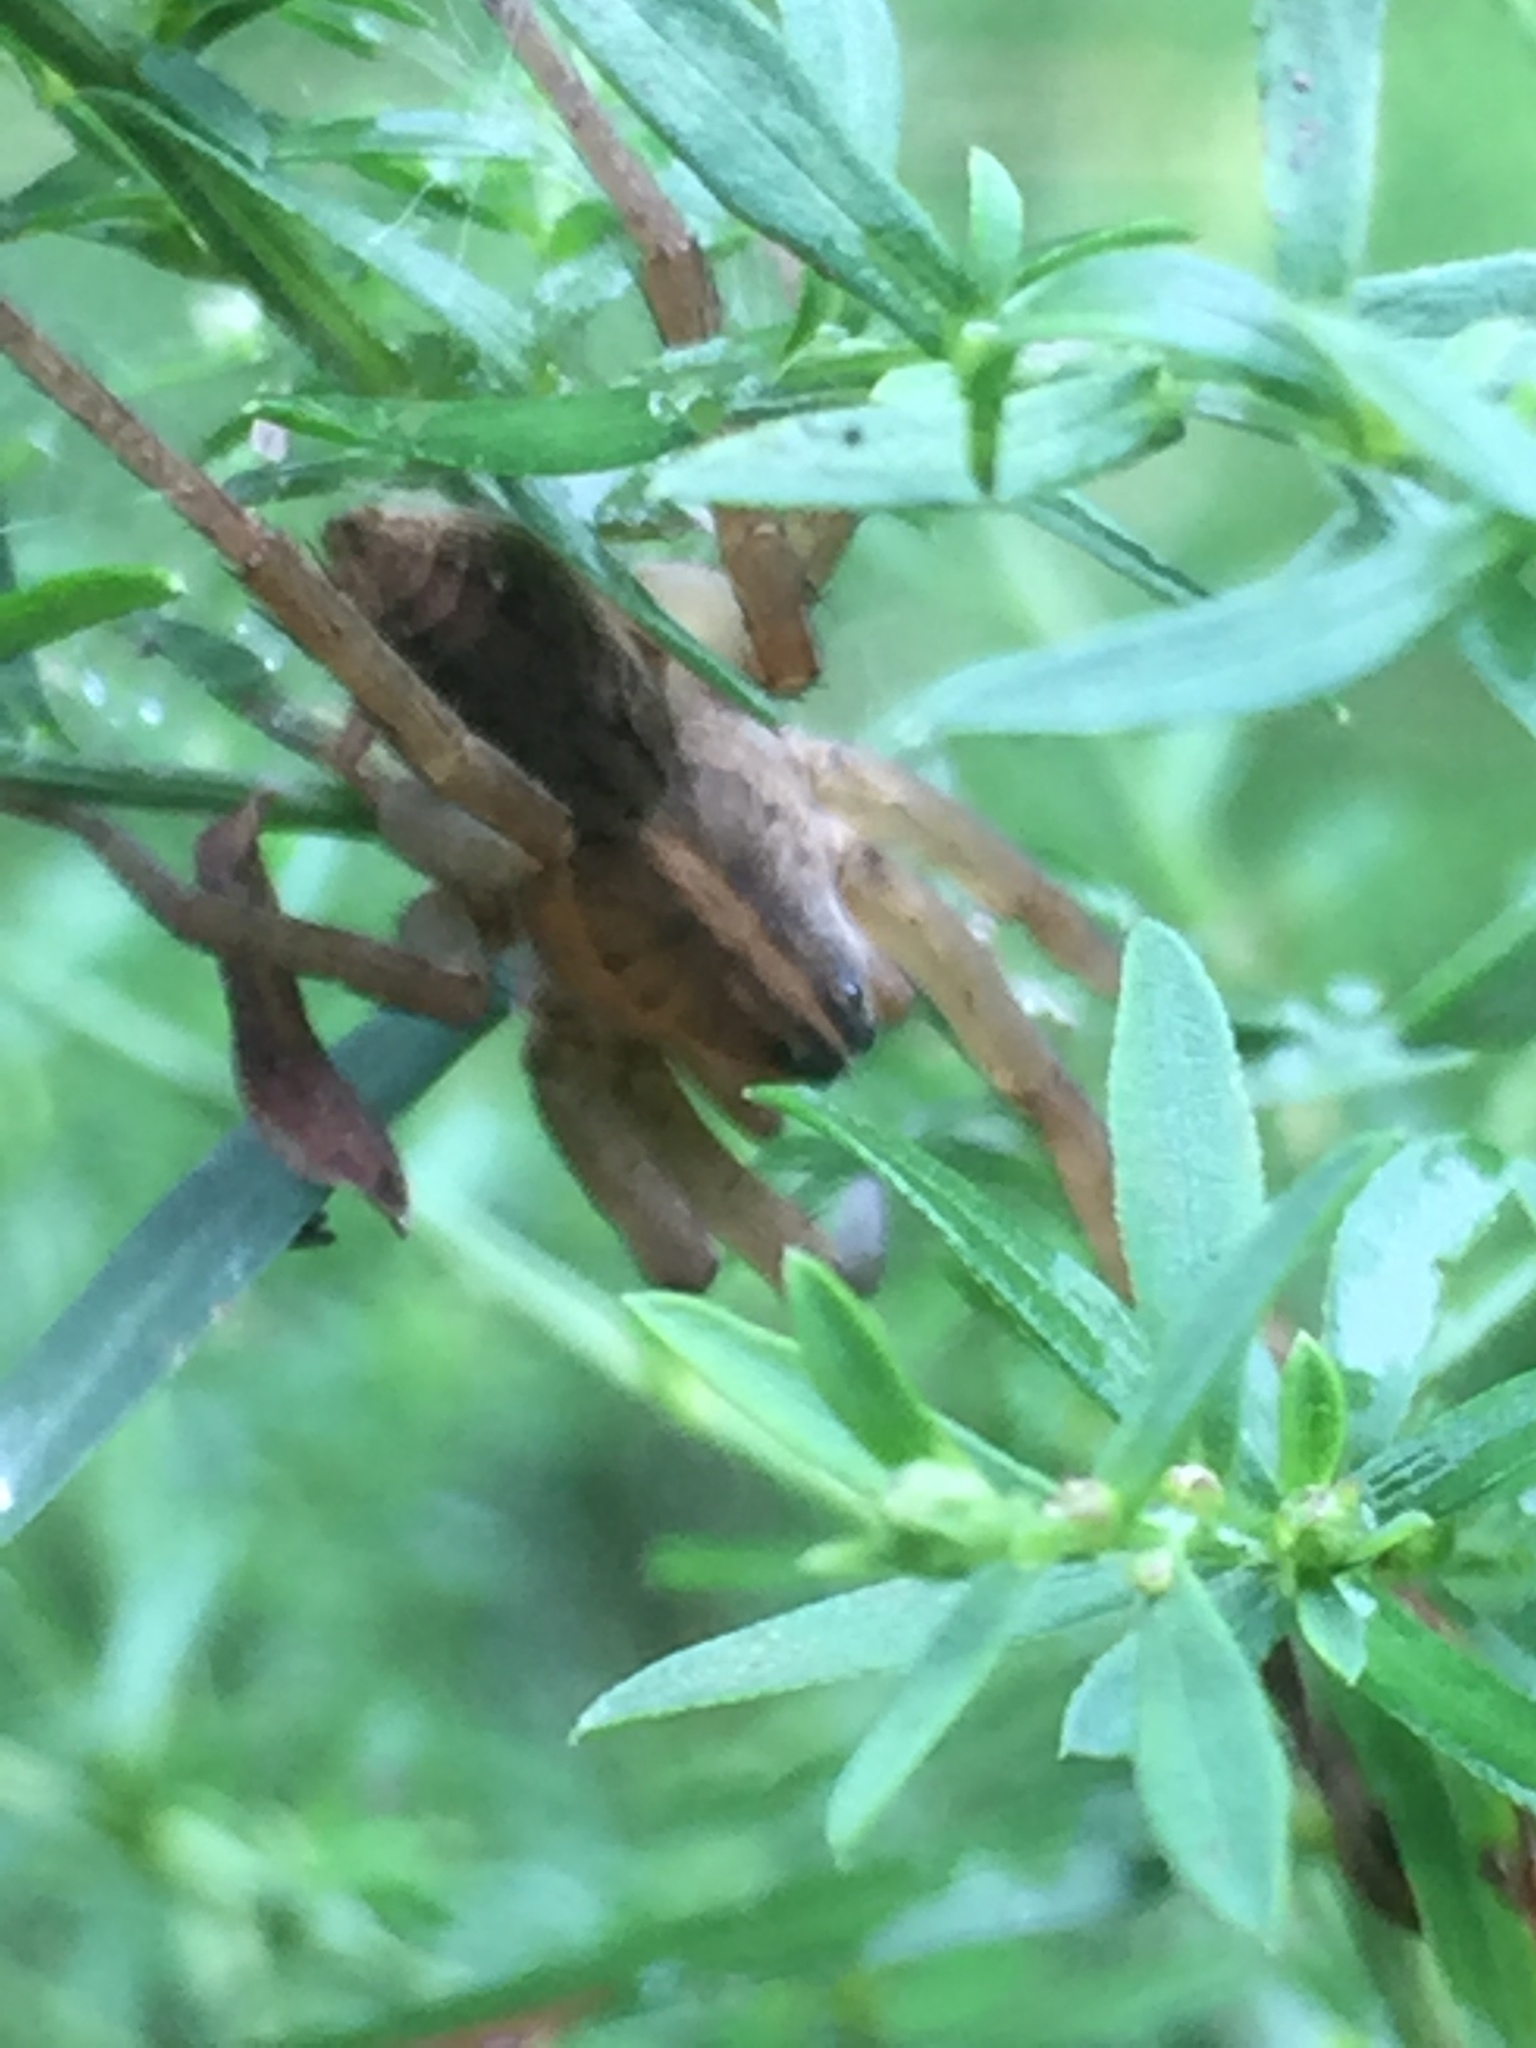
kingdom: Animalia
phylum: Arthropoda
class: Arachnida
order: Araneae
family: Lycosidae
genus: Tigrosa
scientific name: Tigrosa annexa
